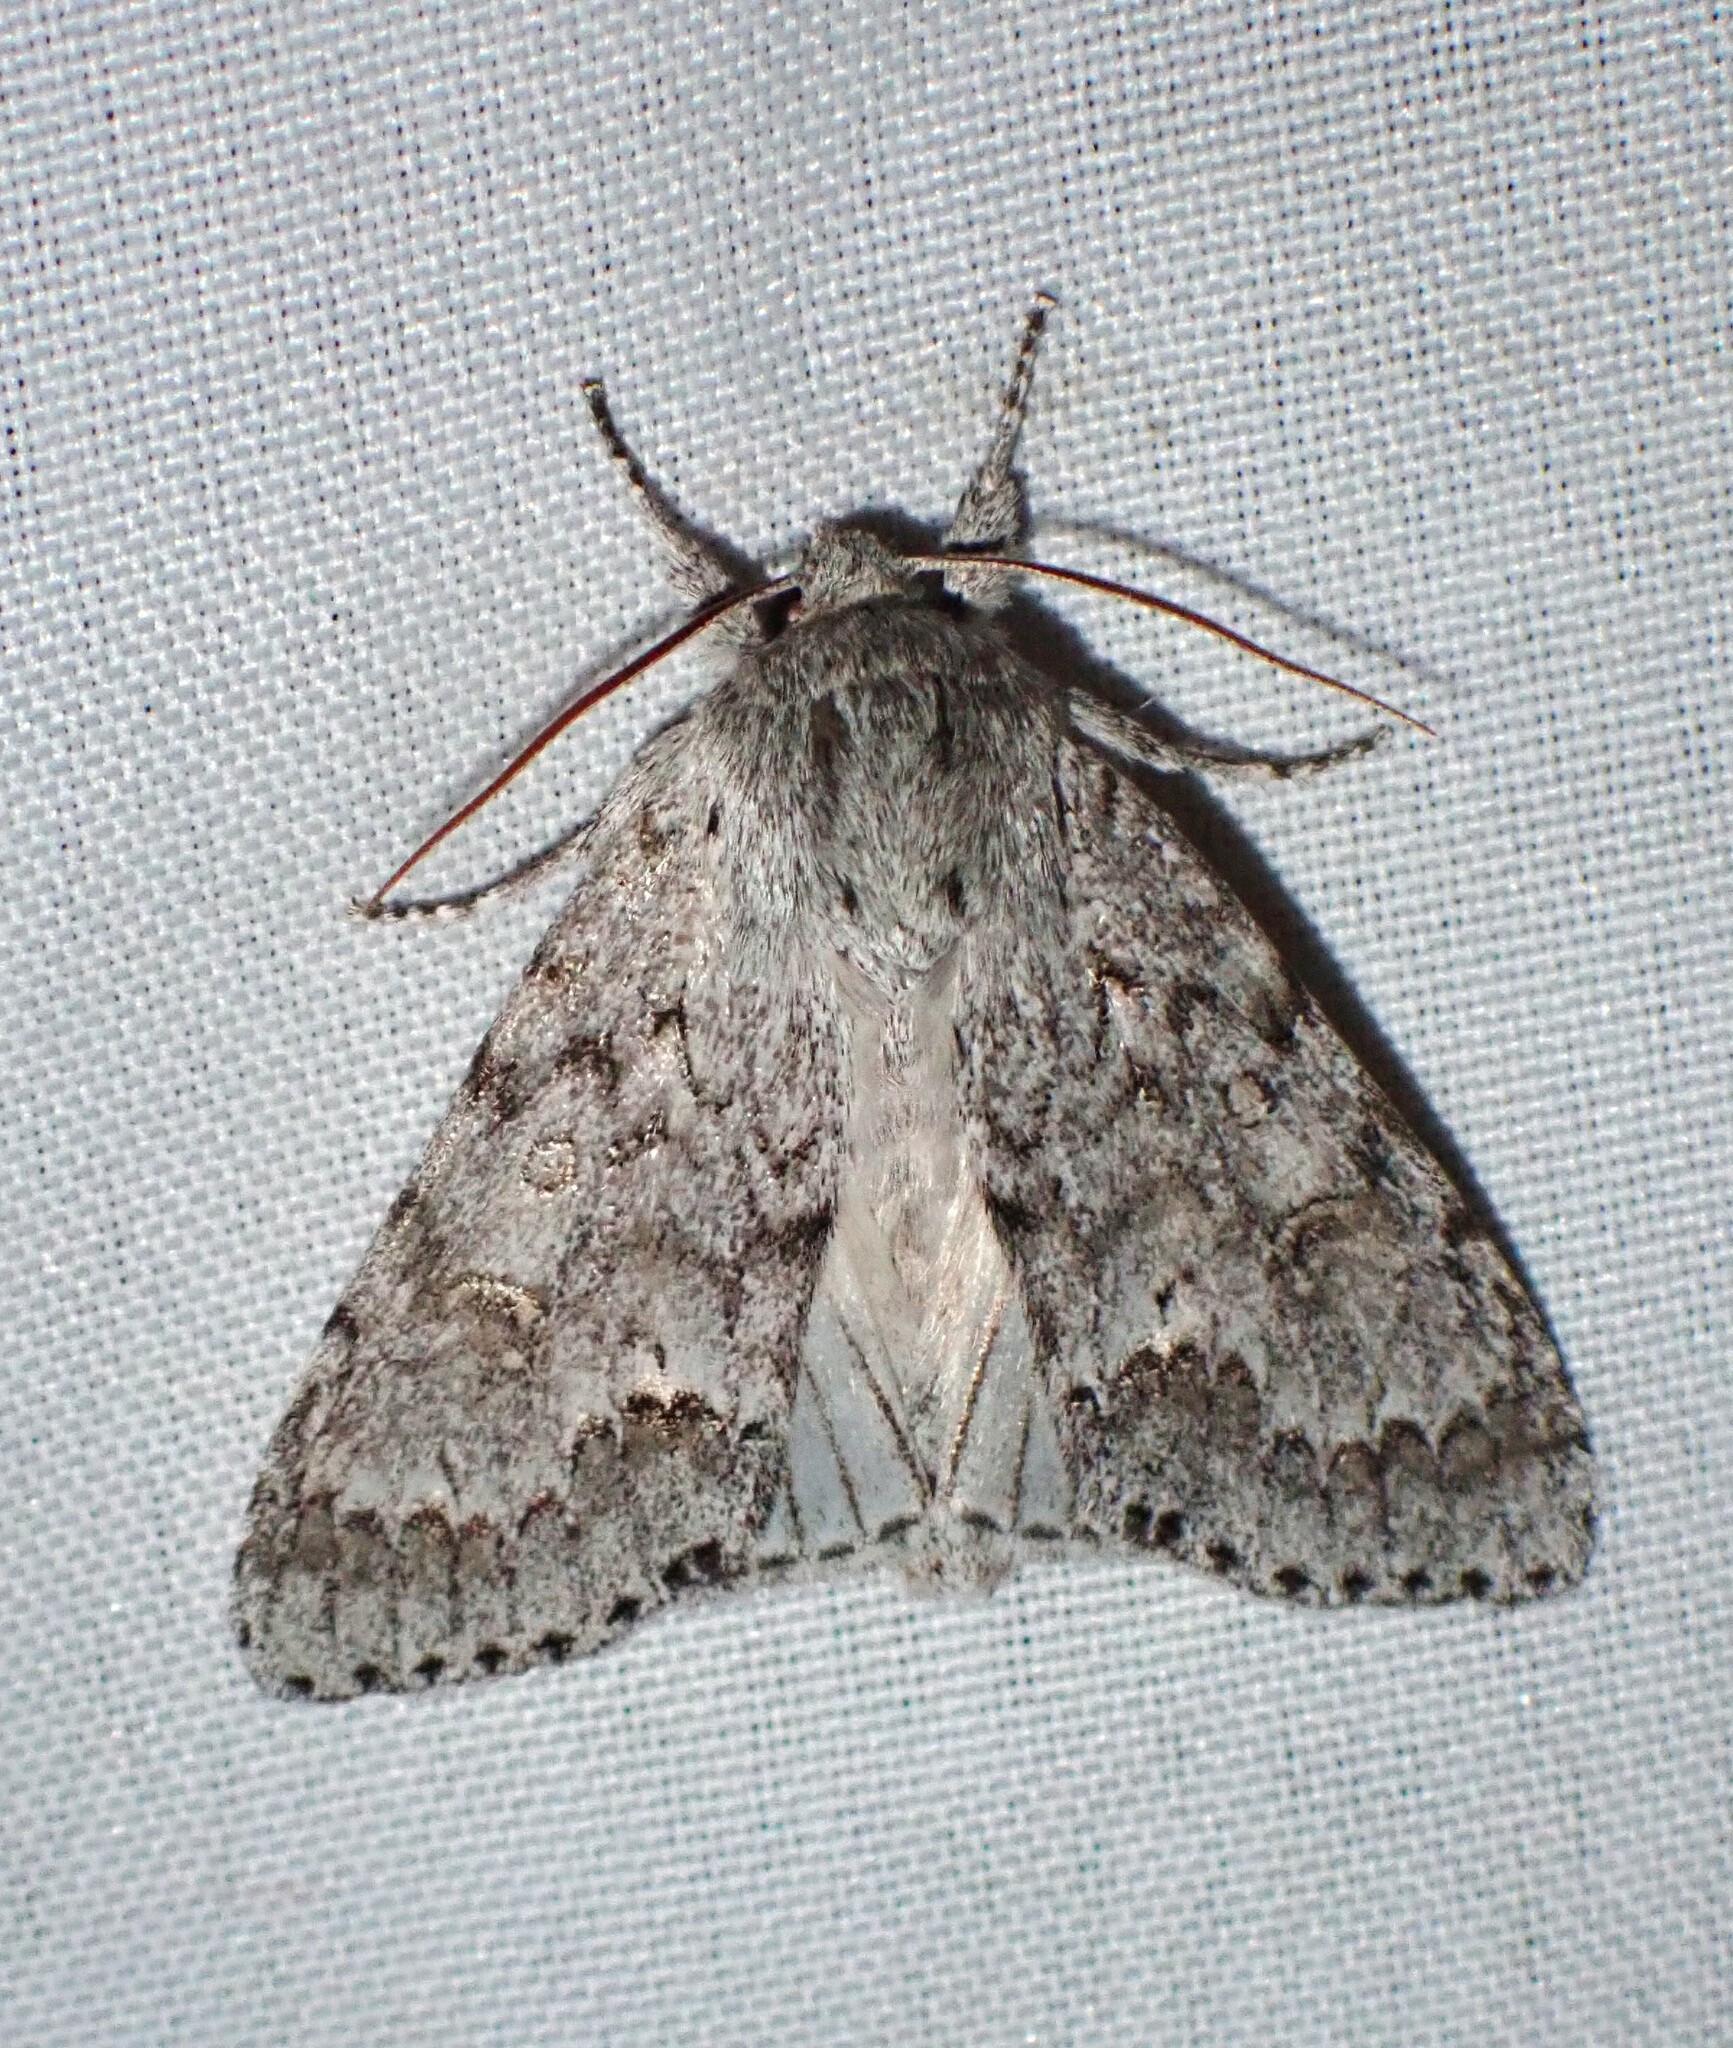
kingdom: Animalia
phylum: Arthropoda
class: Insecta
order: Lepidoptera
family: Noctuidae
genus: Acronicta
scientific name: Acronicta insita
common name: Large gray dagger
